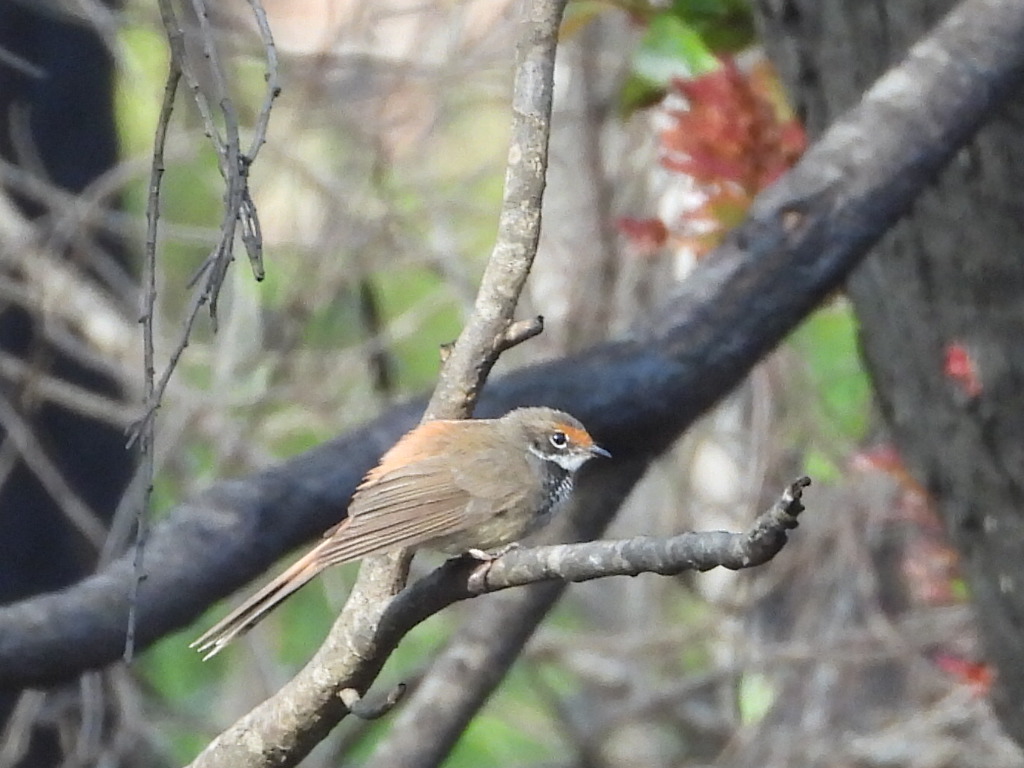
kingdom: Animalia
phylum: Chordata
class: Aves
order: Passeriformes
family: Rhipiduridae
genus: Rhipidura
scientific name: Rhipidura rufifrons
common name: Rufous fantail
